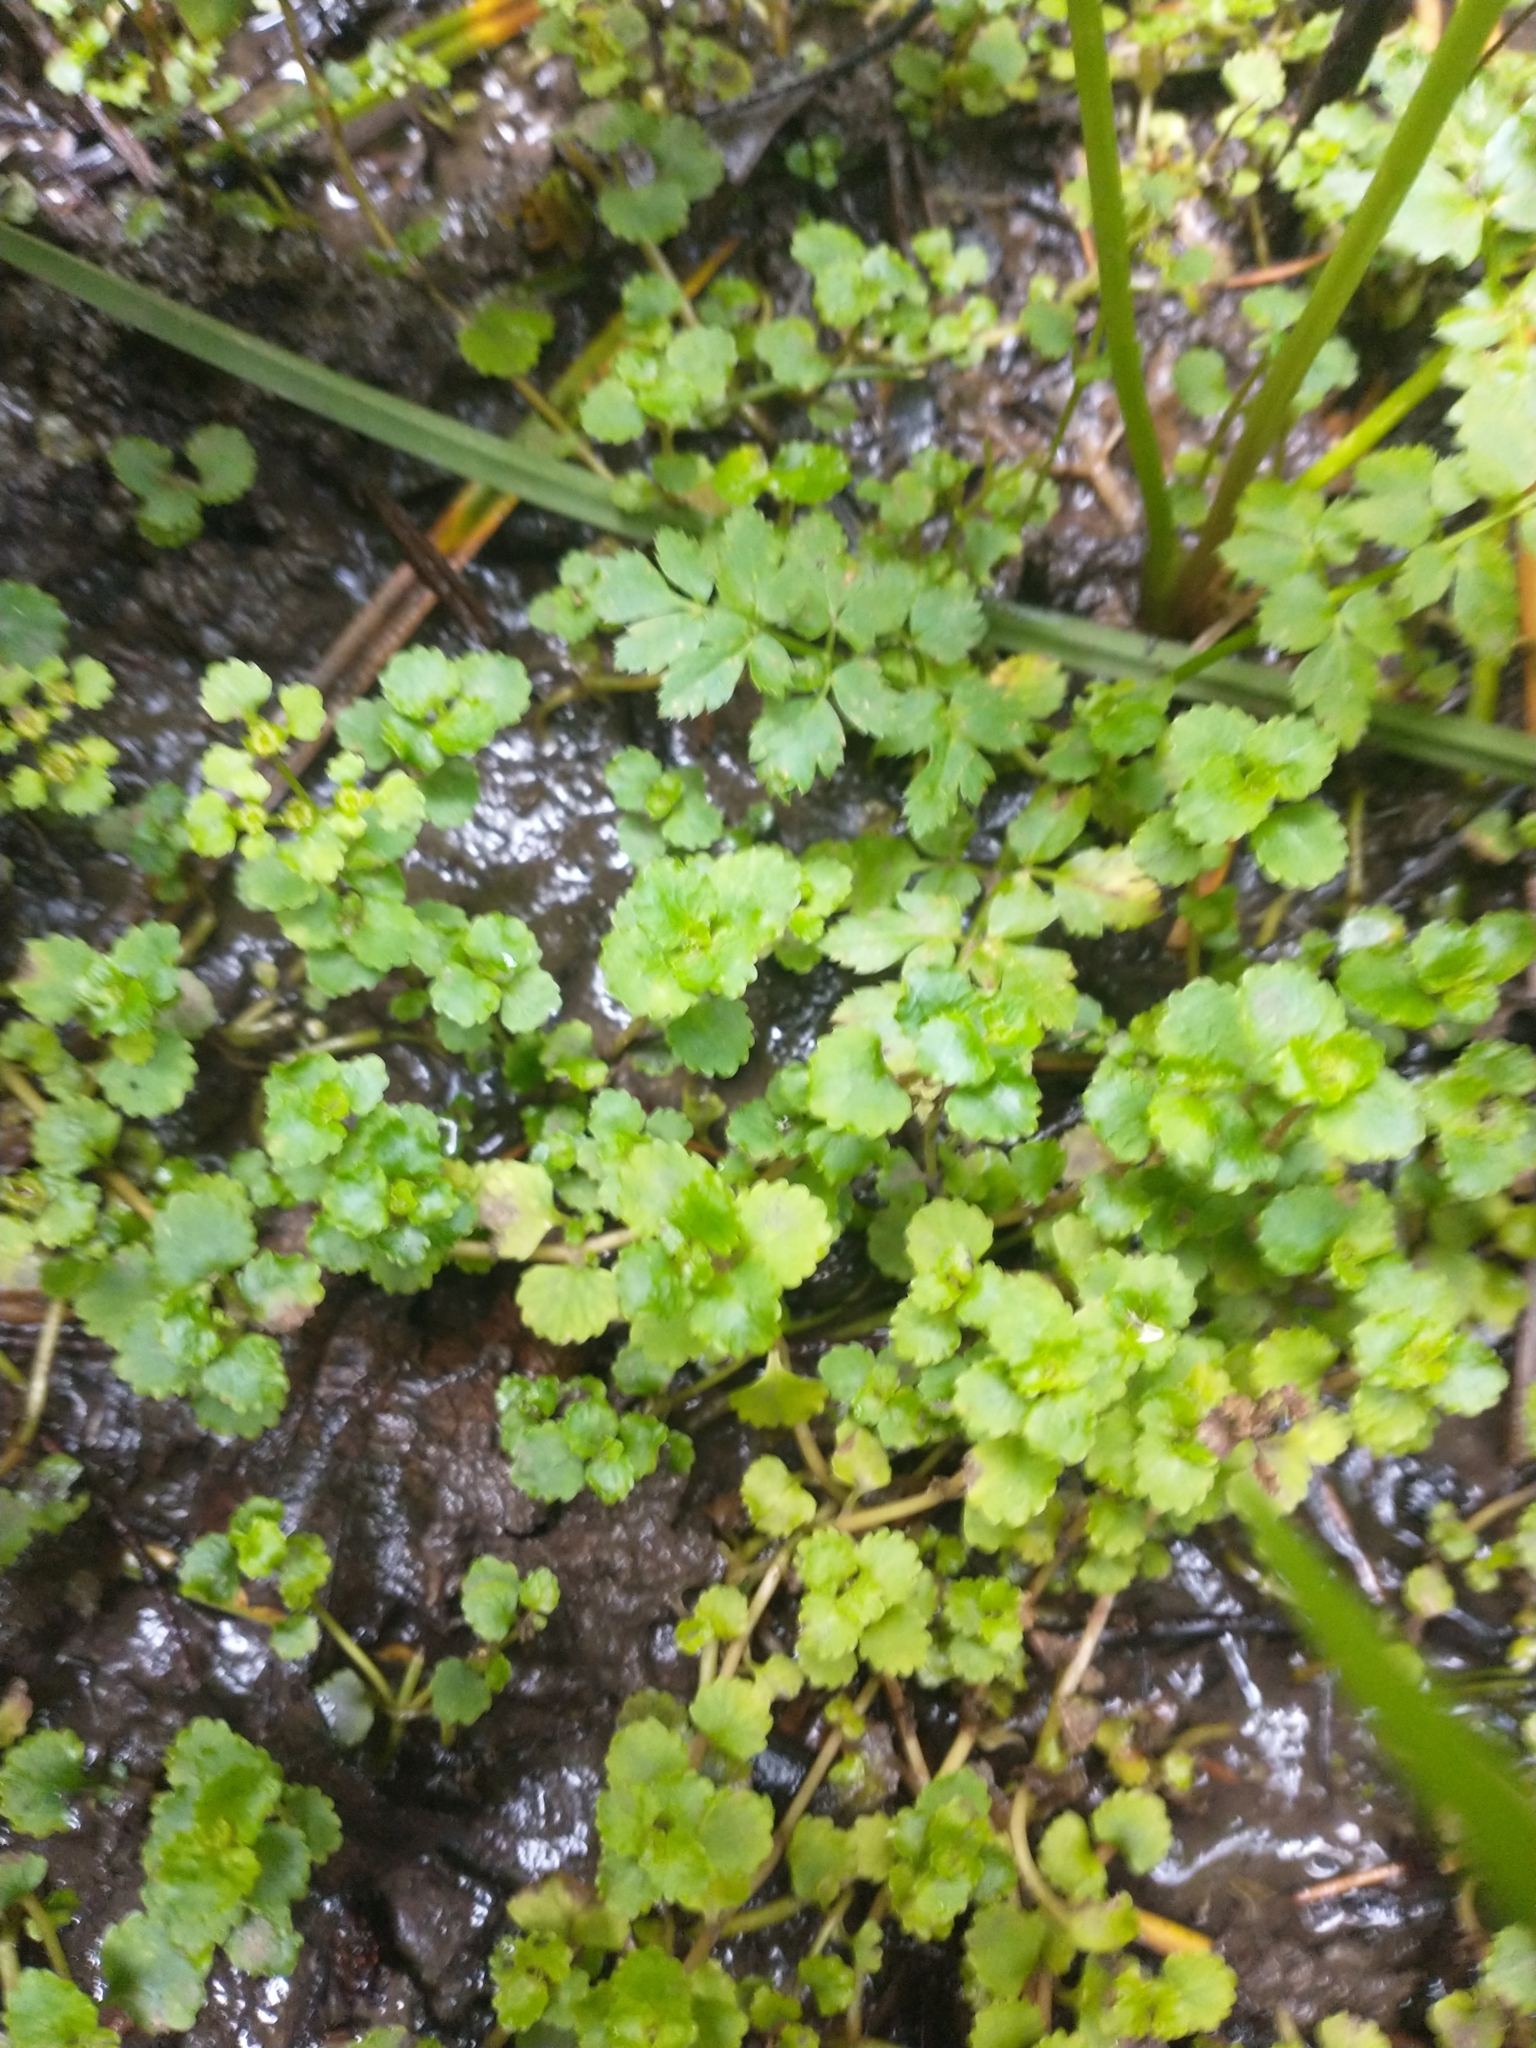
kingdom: Plantae
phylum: Tracheophyta
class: Magnoliopsida
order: Saxifragales
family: Saxifragaceae
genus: Chrysosplenium
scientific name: Chrysosplenium glechomifolium
